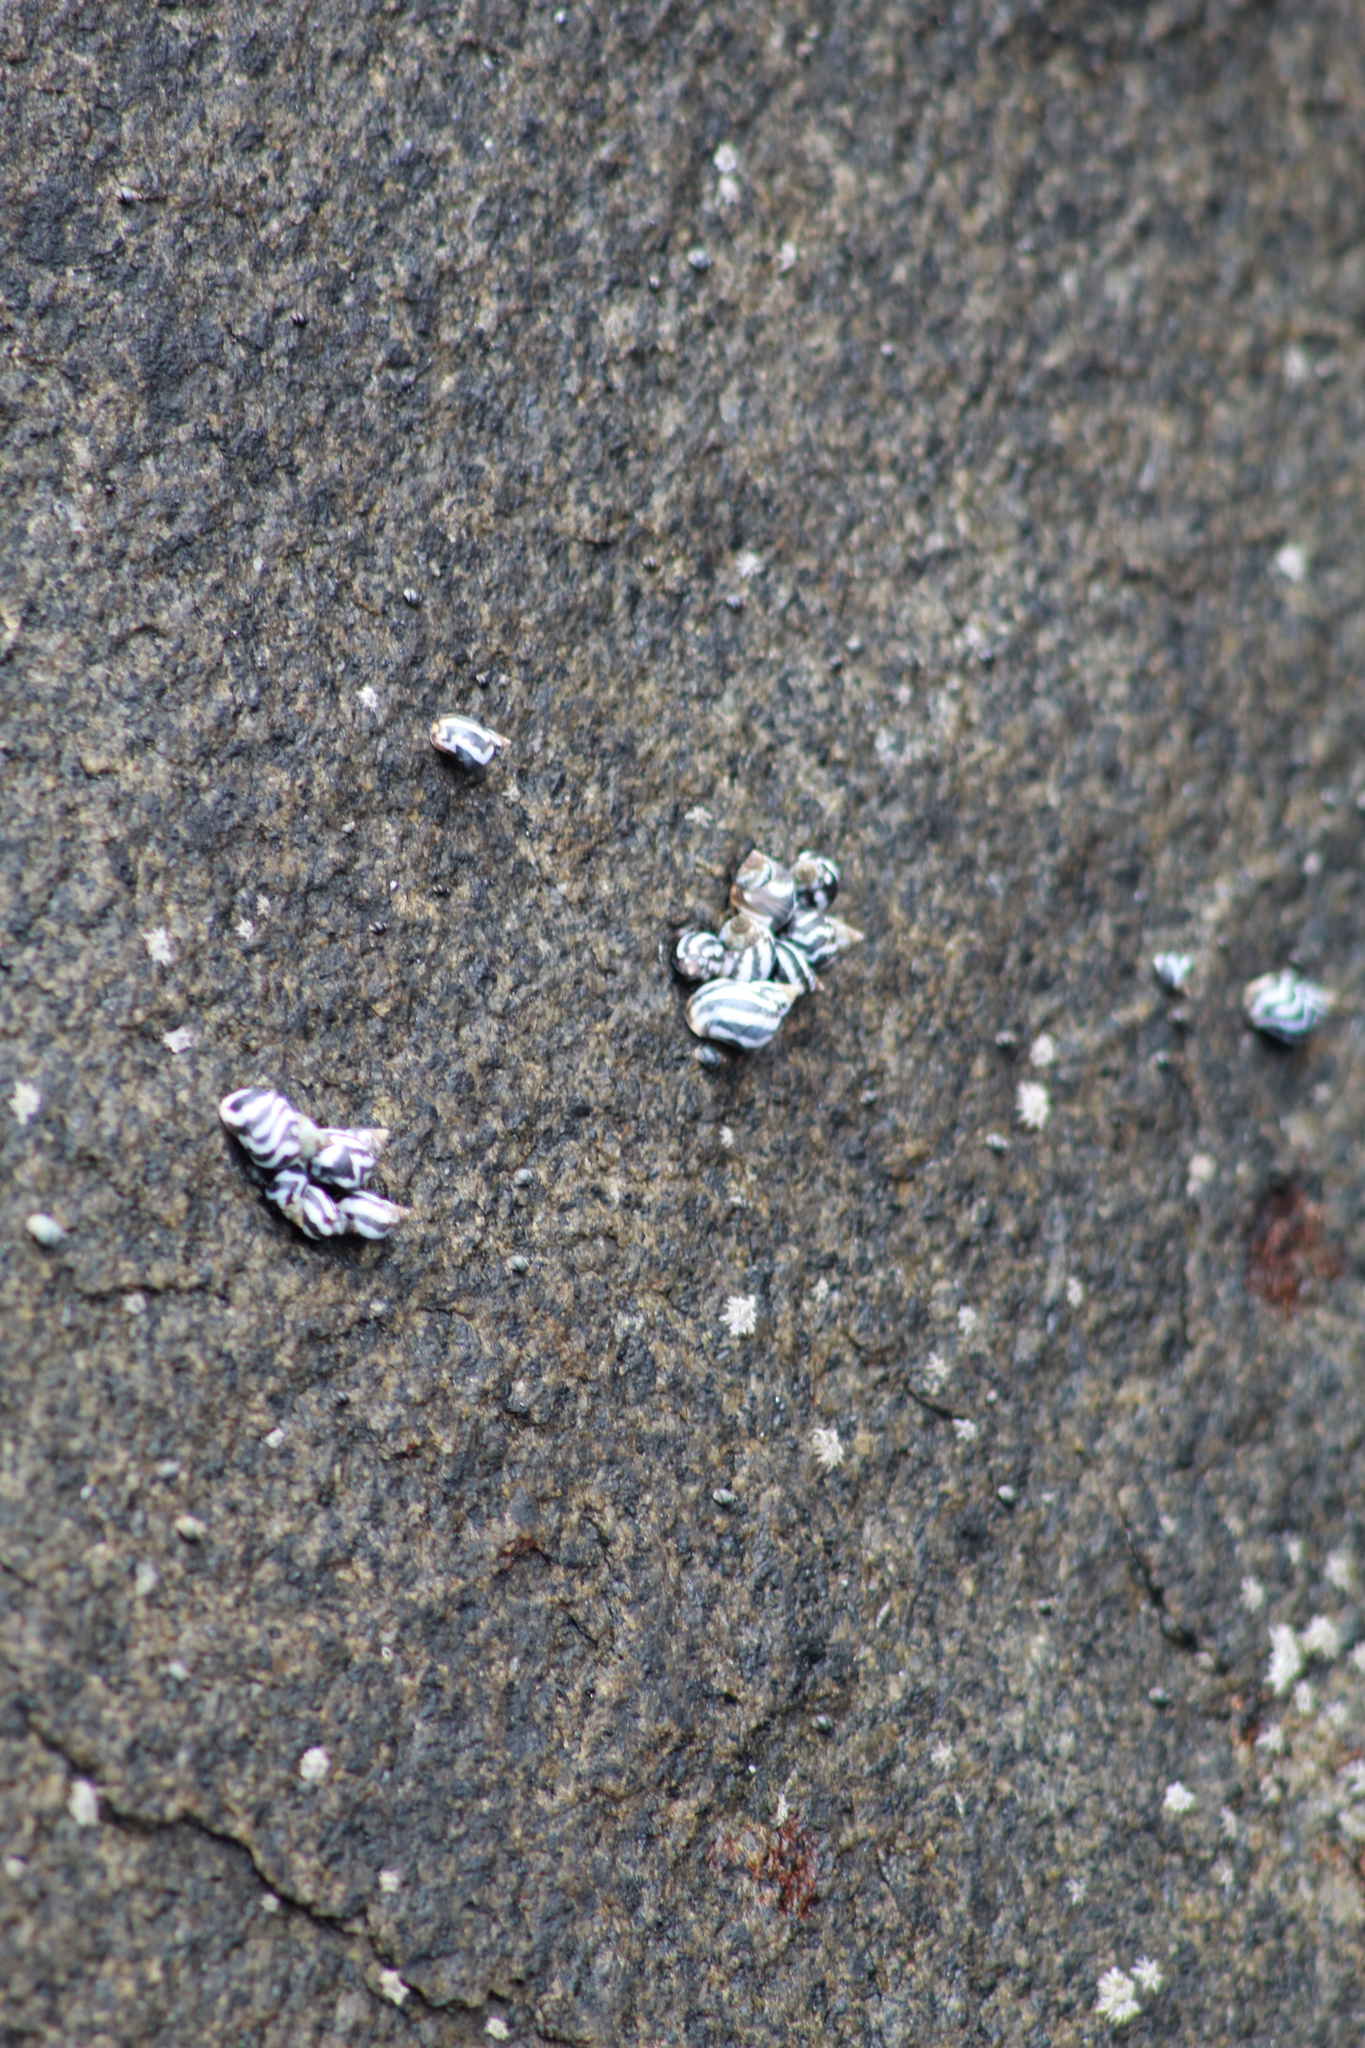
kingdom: Animalia
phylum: Mollusca
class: Gastropoda
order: Littorinimorpha
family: Littorinidae
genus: Echinolittorina
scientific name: Echinolittorina peruviana
